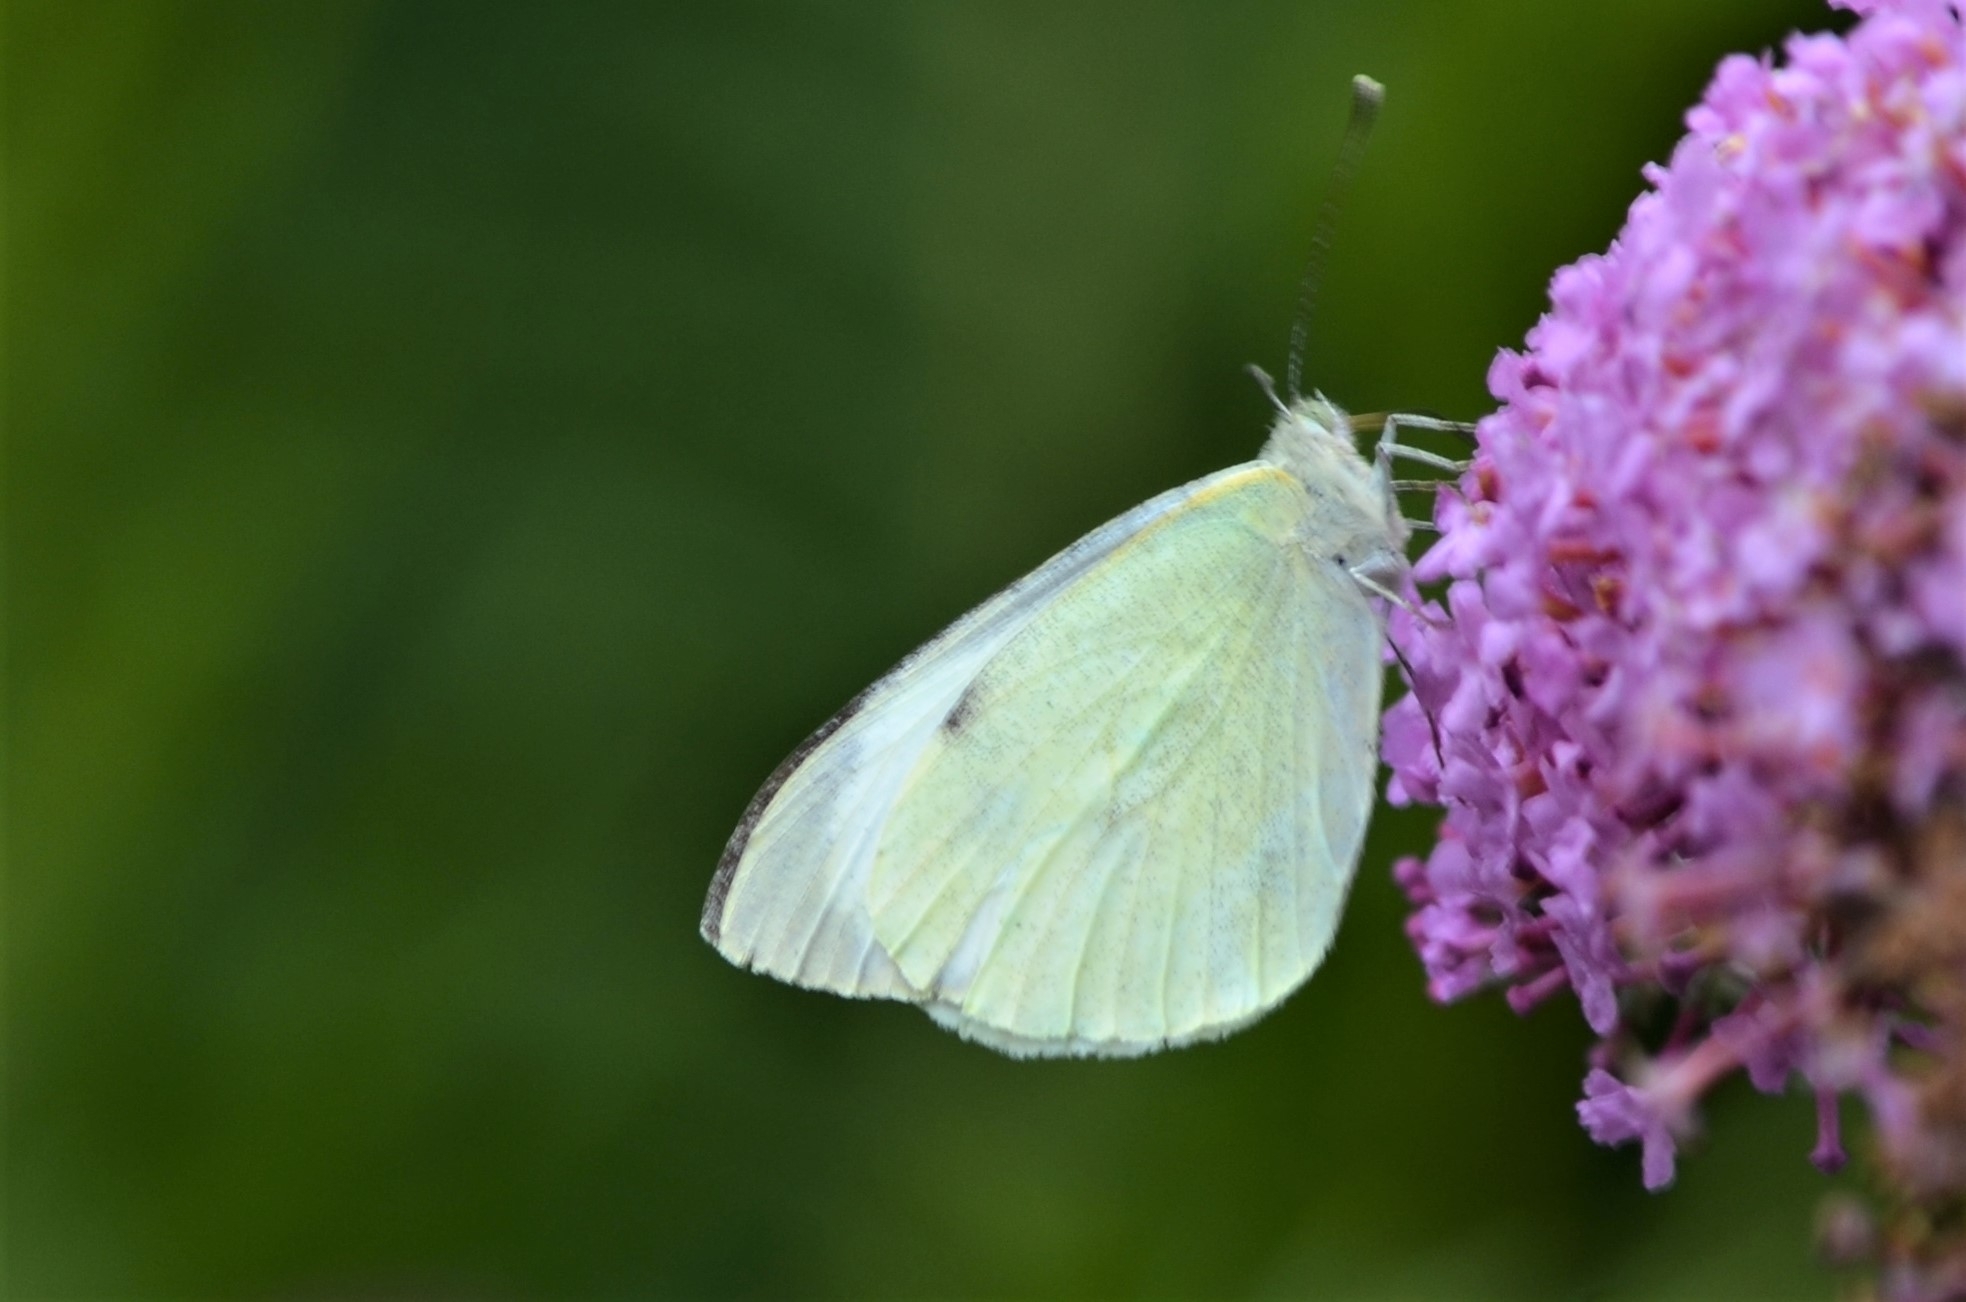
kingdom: Animalia
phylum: Arthropoda
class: Insecta
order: Lepidoptera
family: Pieridae
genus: Pieris
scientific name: Pieris brassicae
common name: Large white
